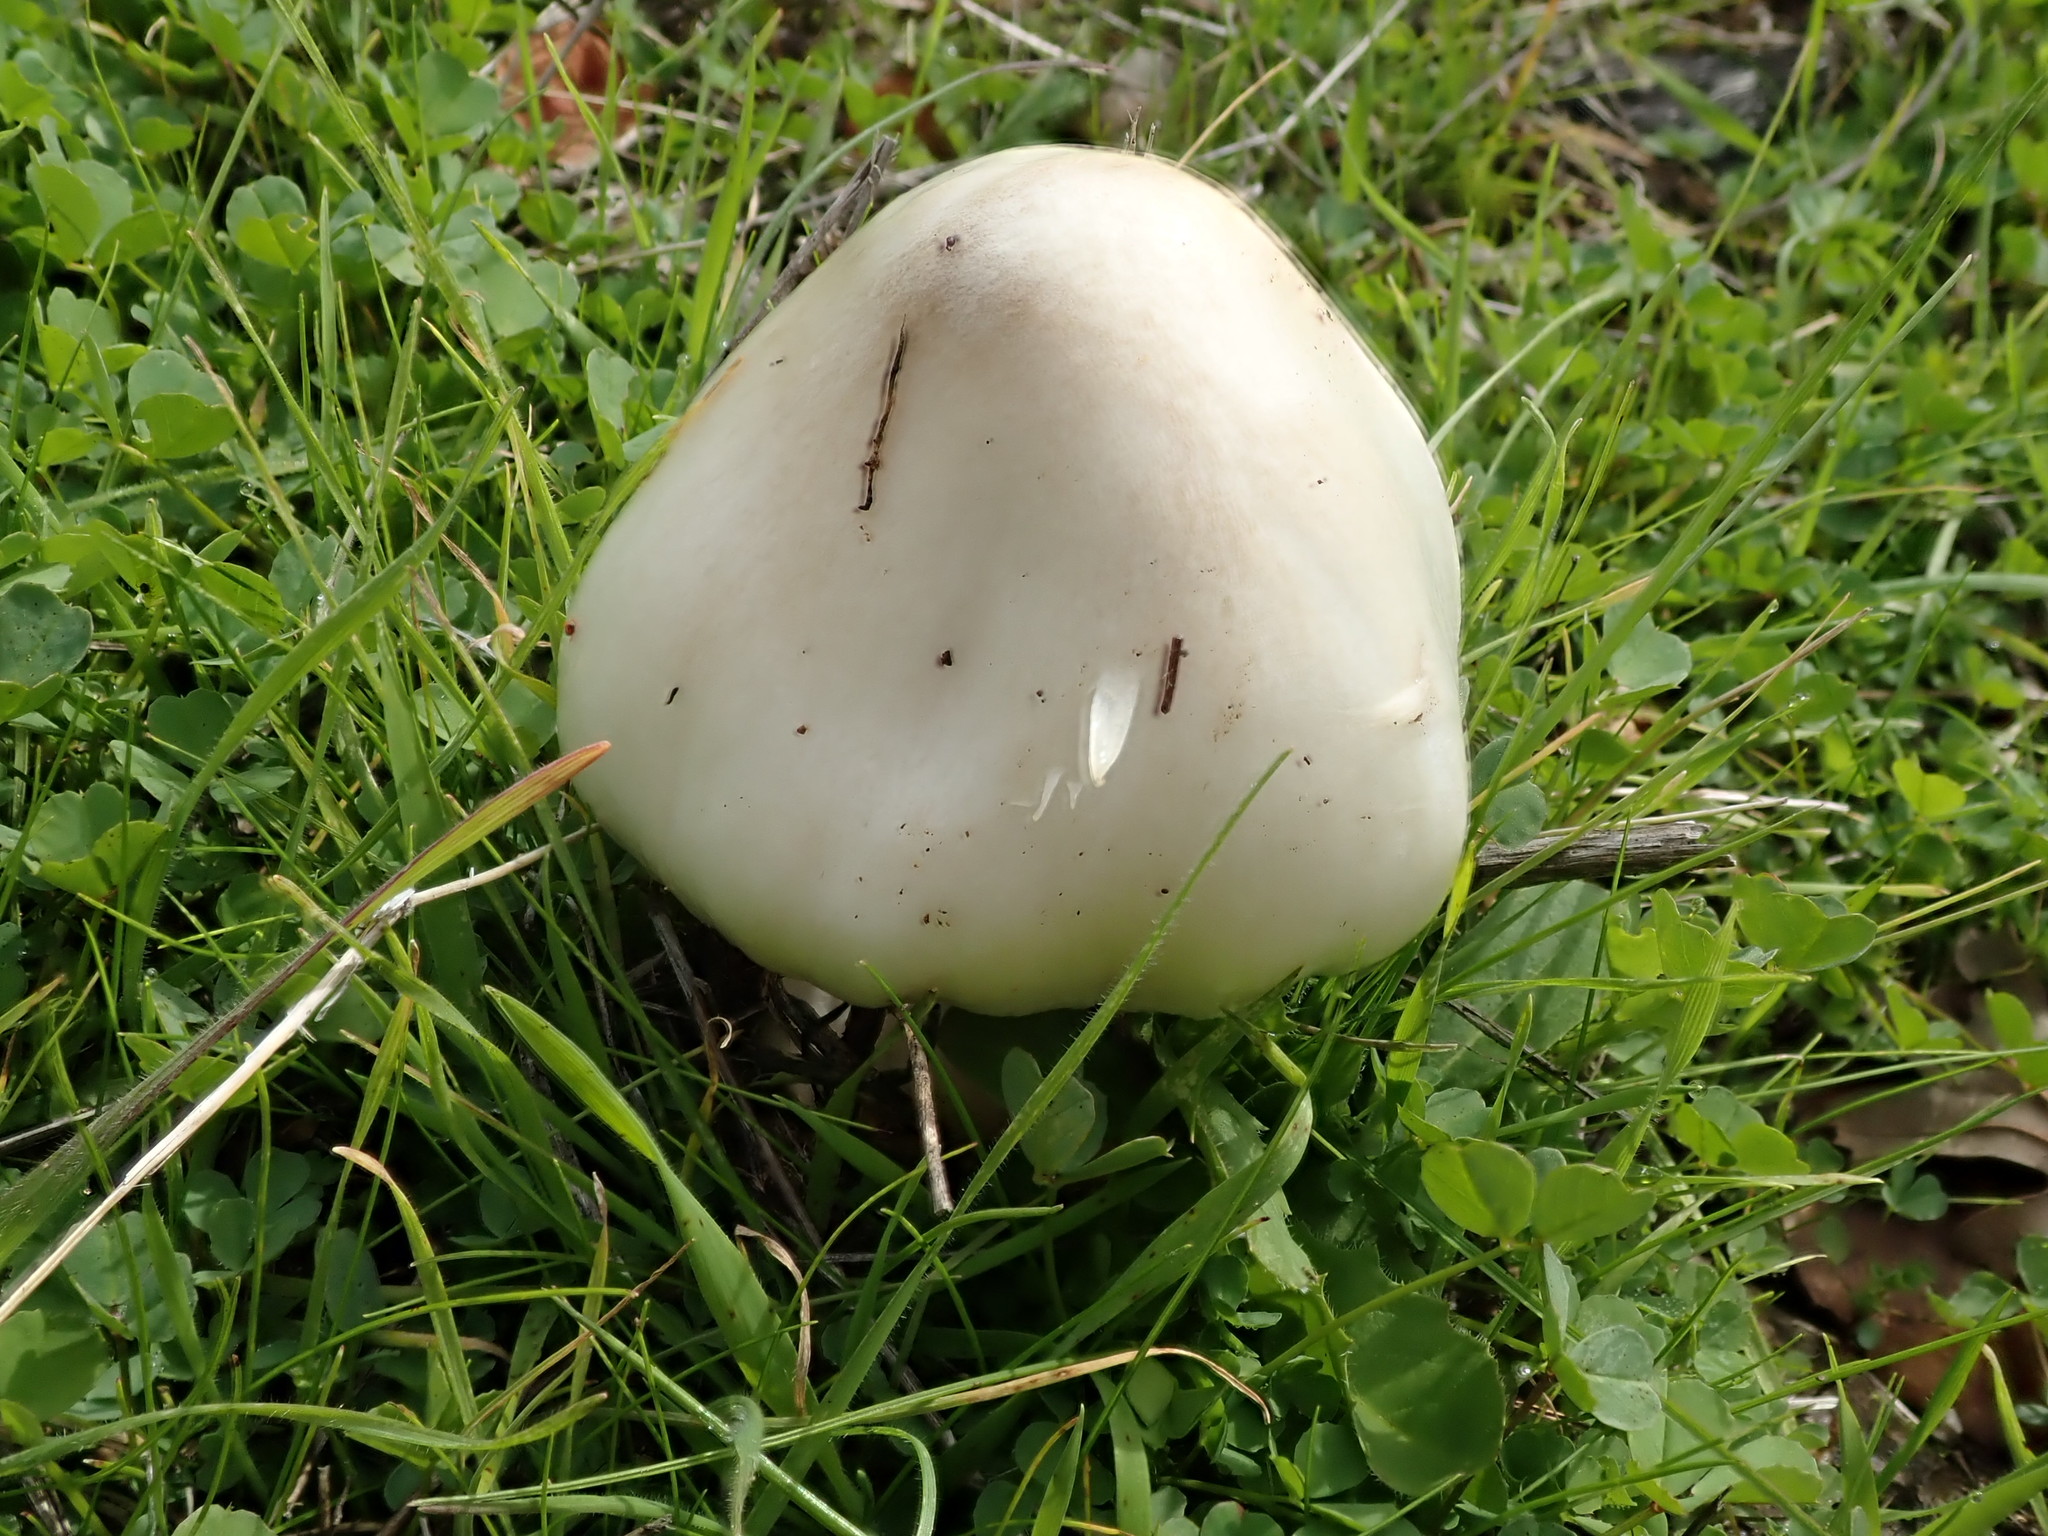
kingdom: Fungi
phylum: Basidiomycota
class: Agaricomycetes
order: Agaricales
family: Pluteaceae
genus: Volvopluteus
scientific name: Volvopluteus gloiocephalus
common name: Stubble rosegill
